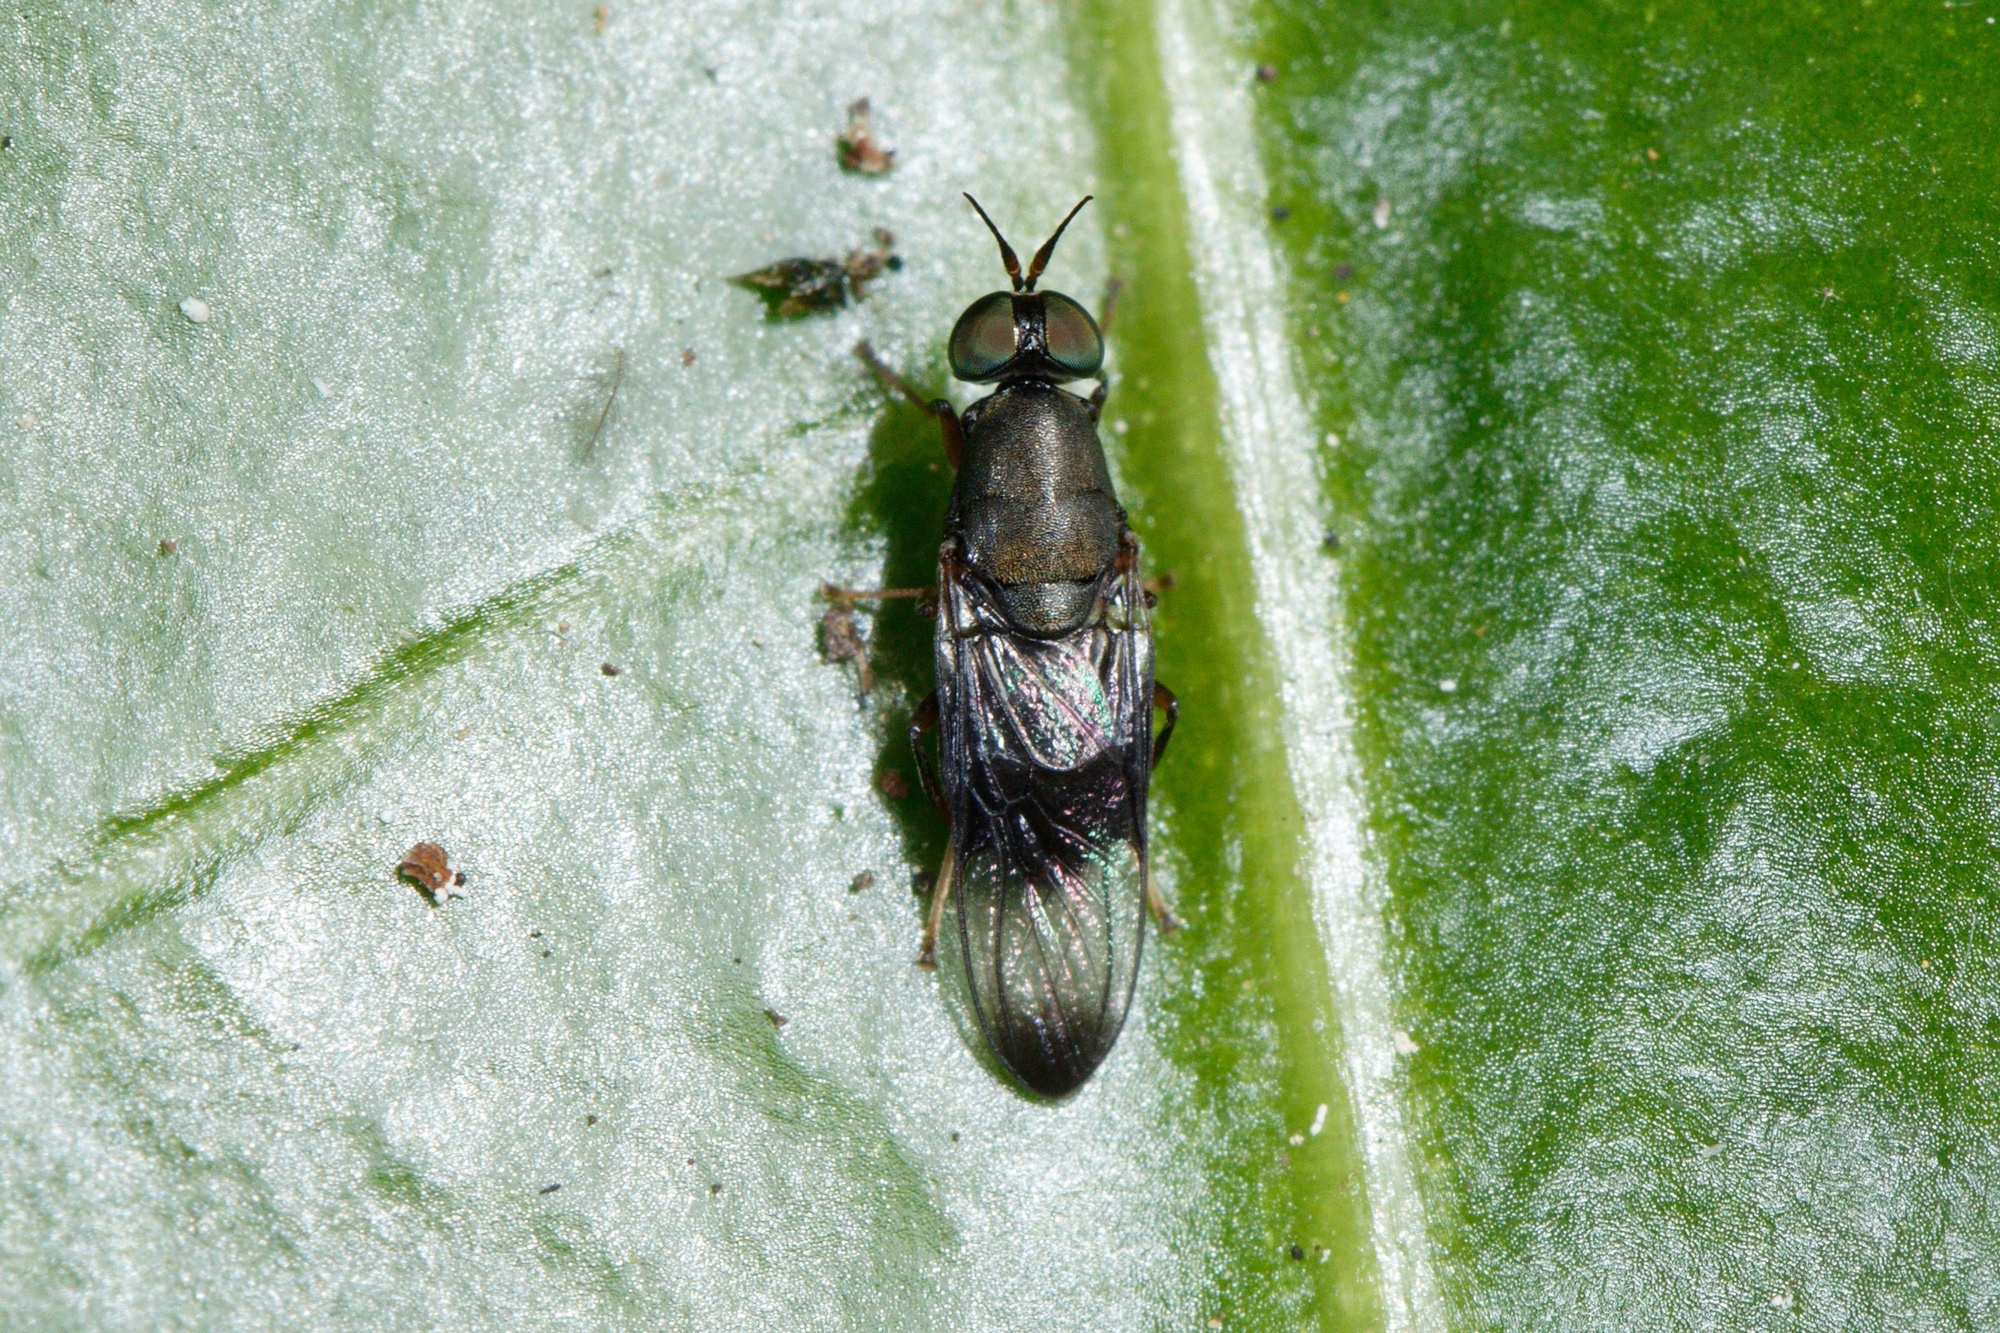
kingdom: Animalia
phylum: Arthropoda
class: Insecta
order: Diptera
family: Stratiomyidae
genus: Dysbiota
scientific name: Dysbiota peregrina
